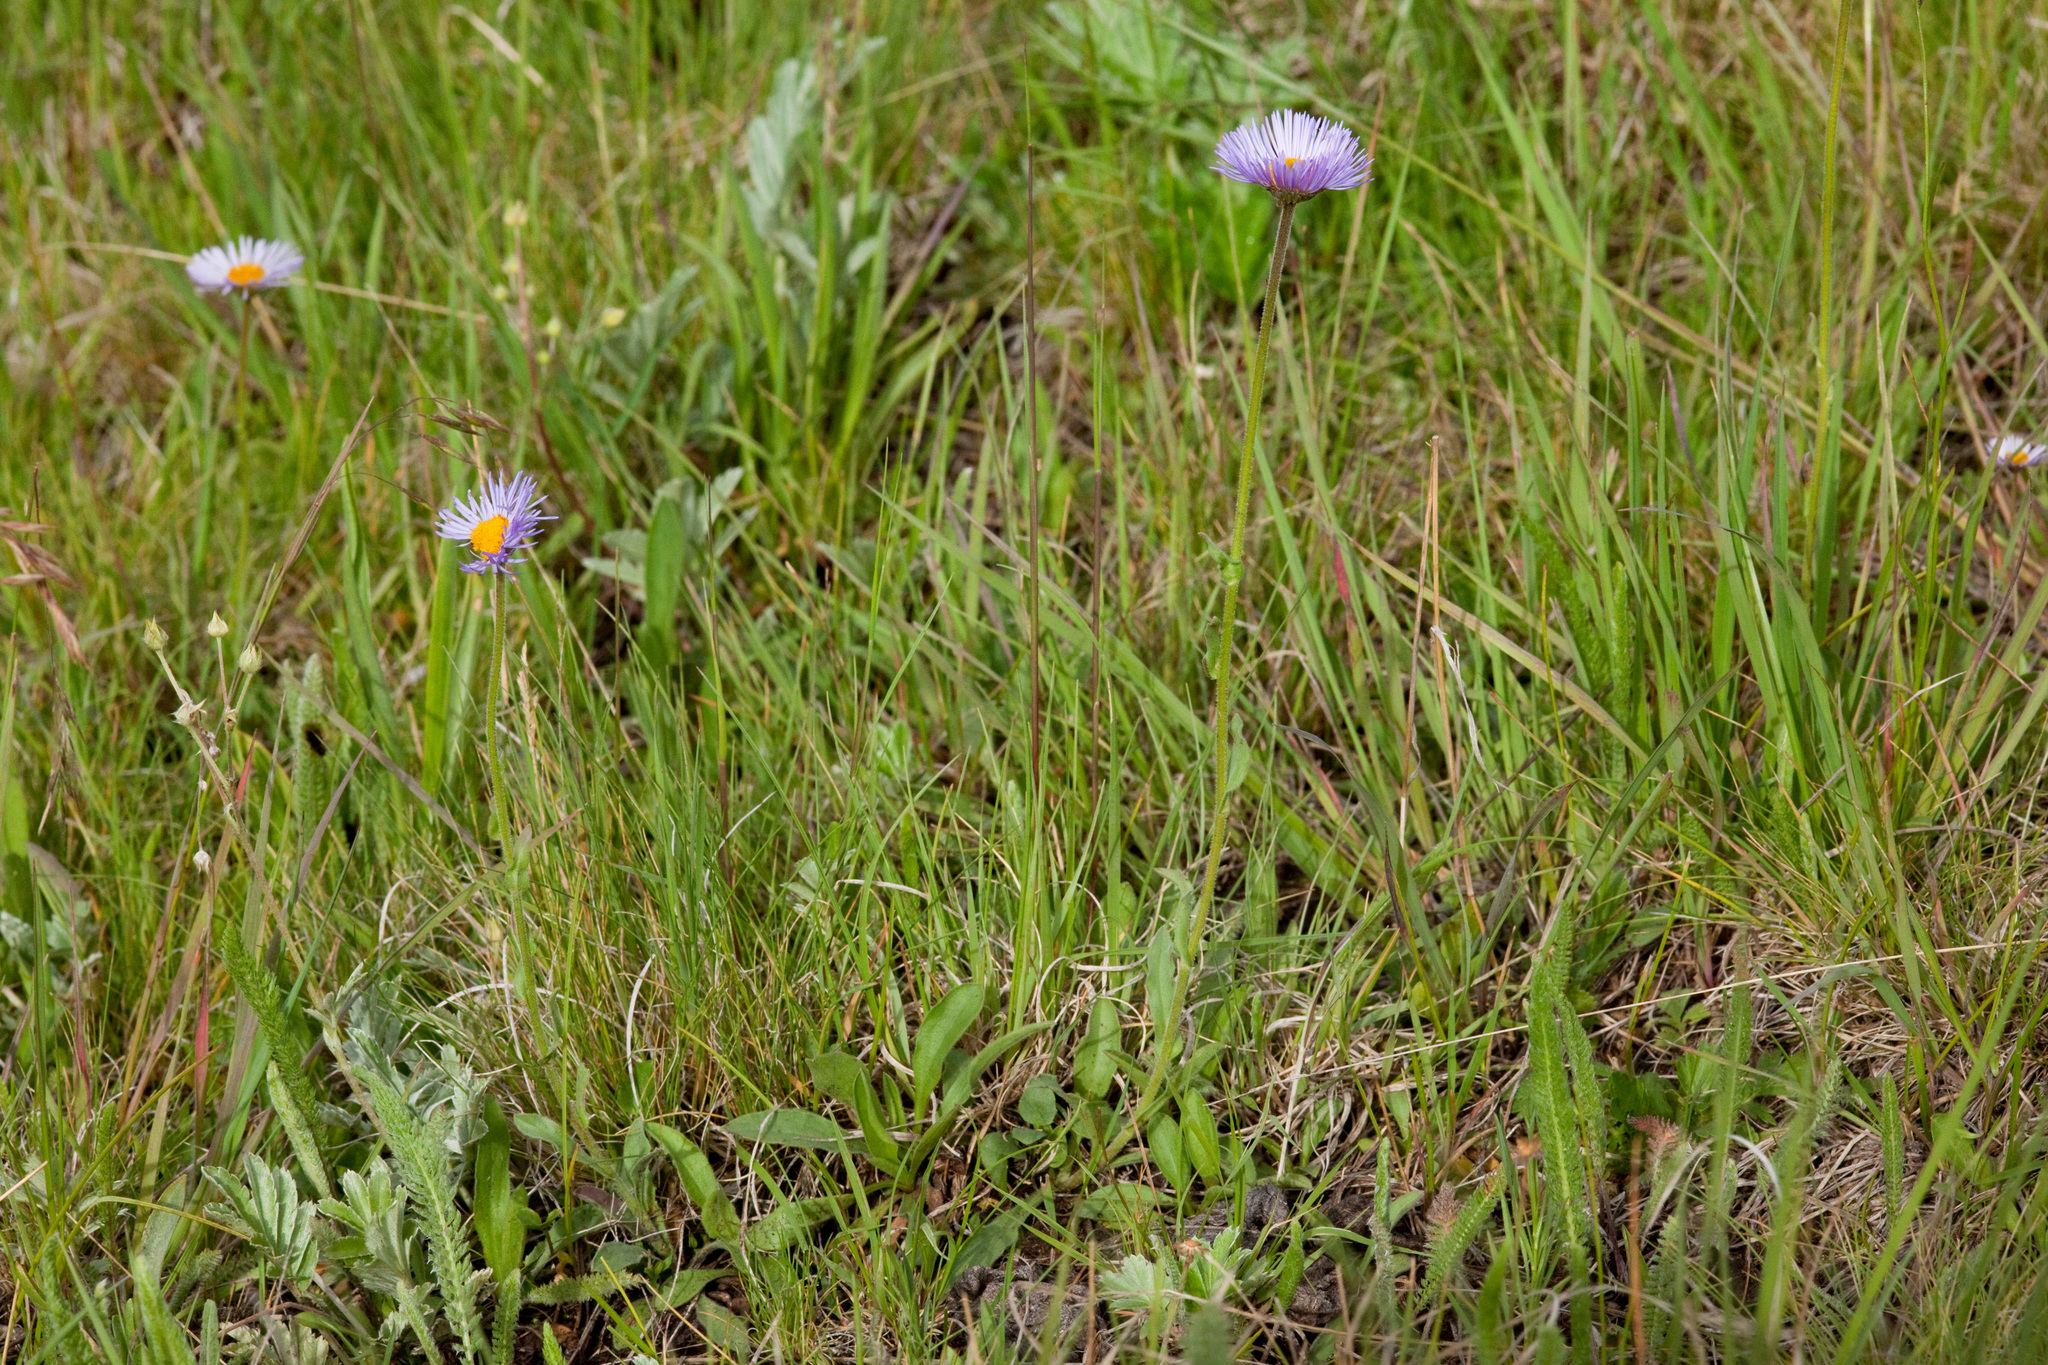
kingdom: Plantae
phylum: Tracheophyta
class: Magnoliopsida
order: Asterales
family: Asteraceae
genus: Erigeron
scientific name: Erigeron formosissimus
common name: Beautiful fleabane
